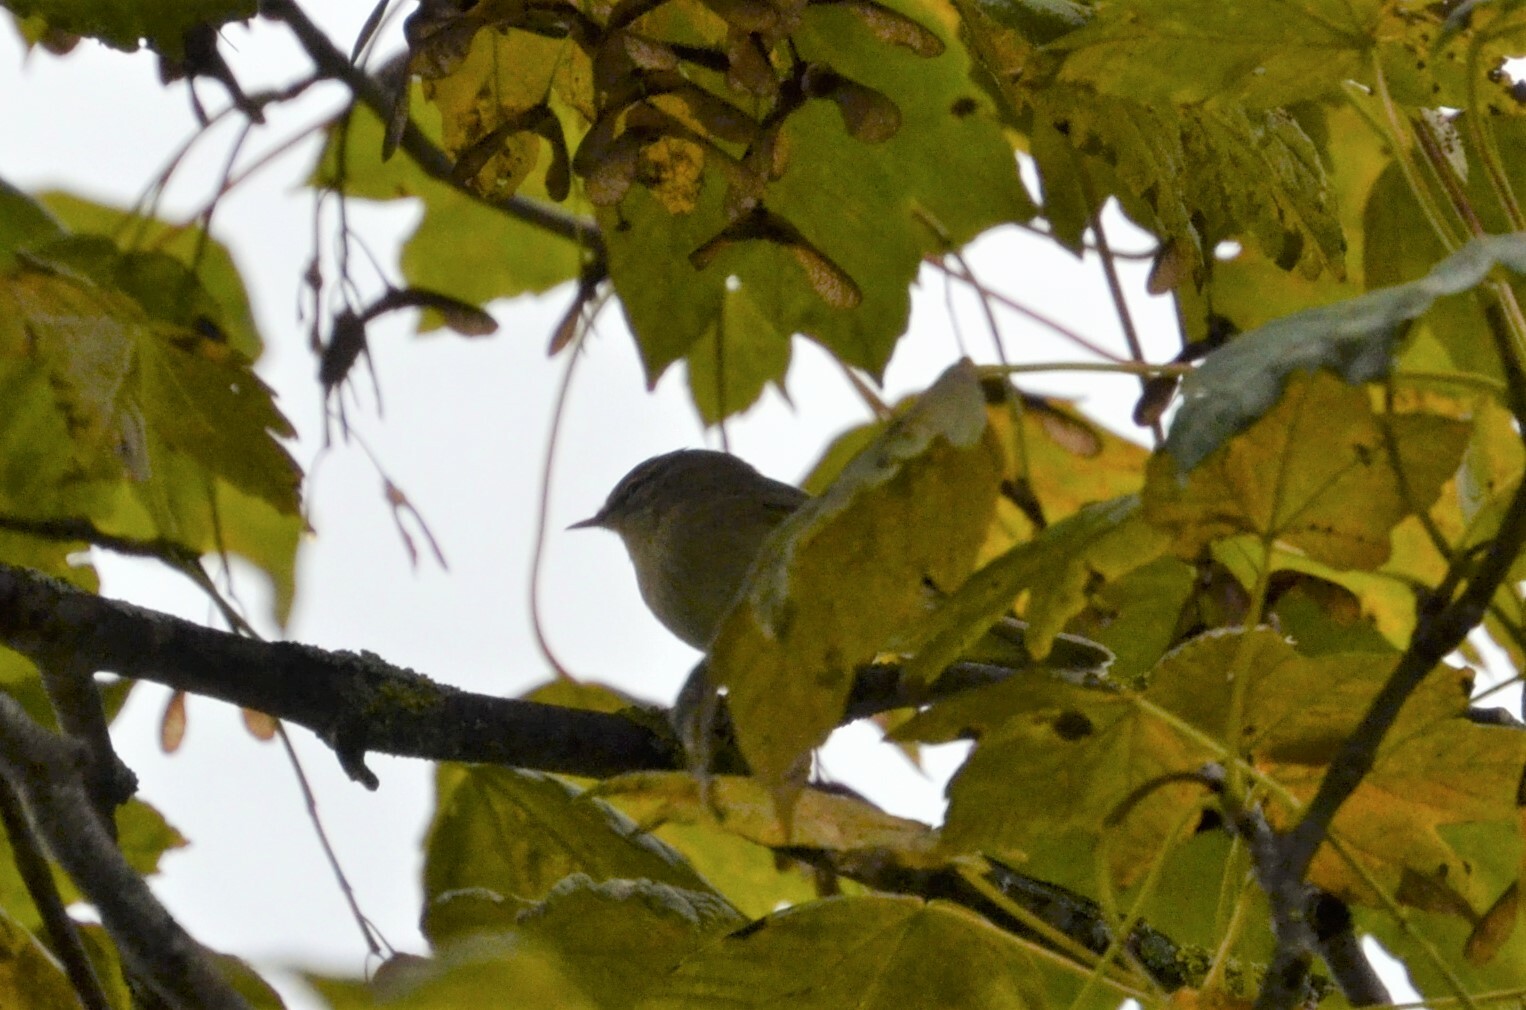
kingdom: Animalia
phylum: Chordata
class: Aves
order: Passeriformes
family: Phylloscopidae
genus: Phylloscopus
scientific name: Phylloscopus collybita
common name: Common chiffchaff
